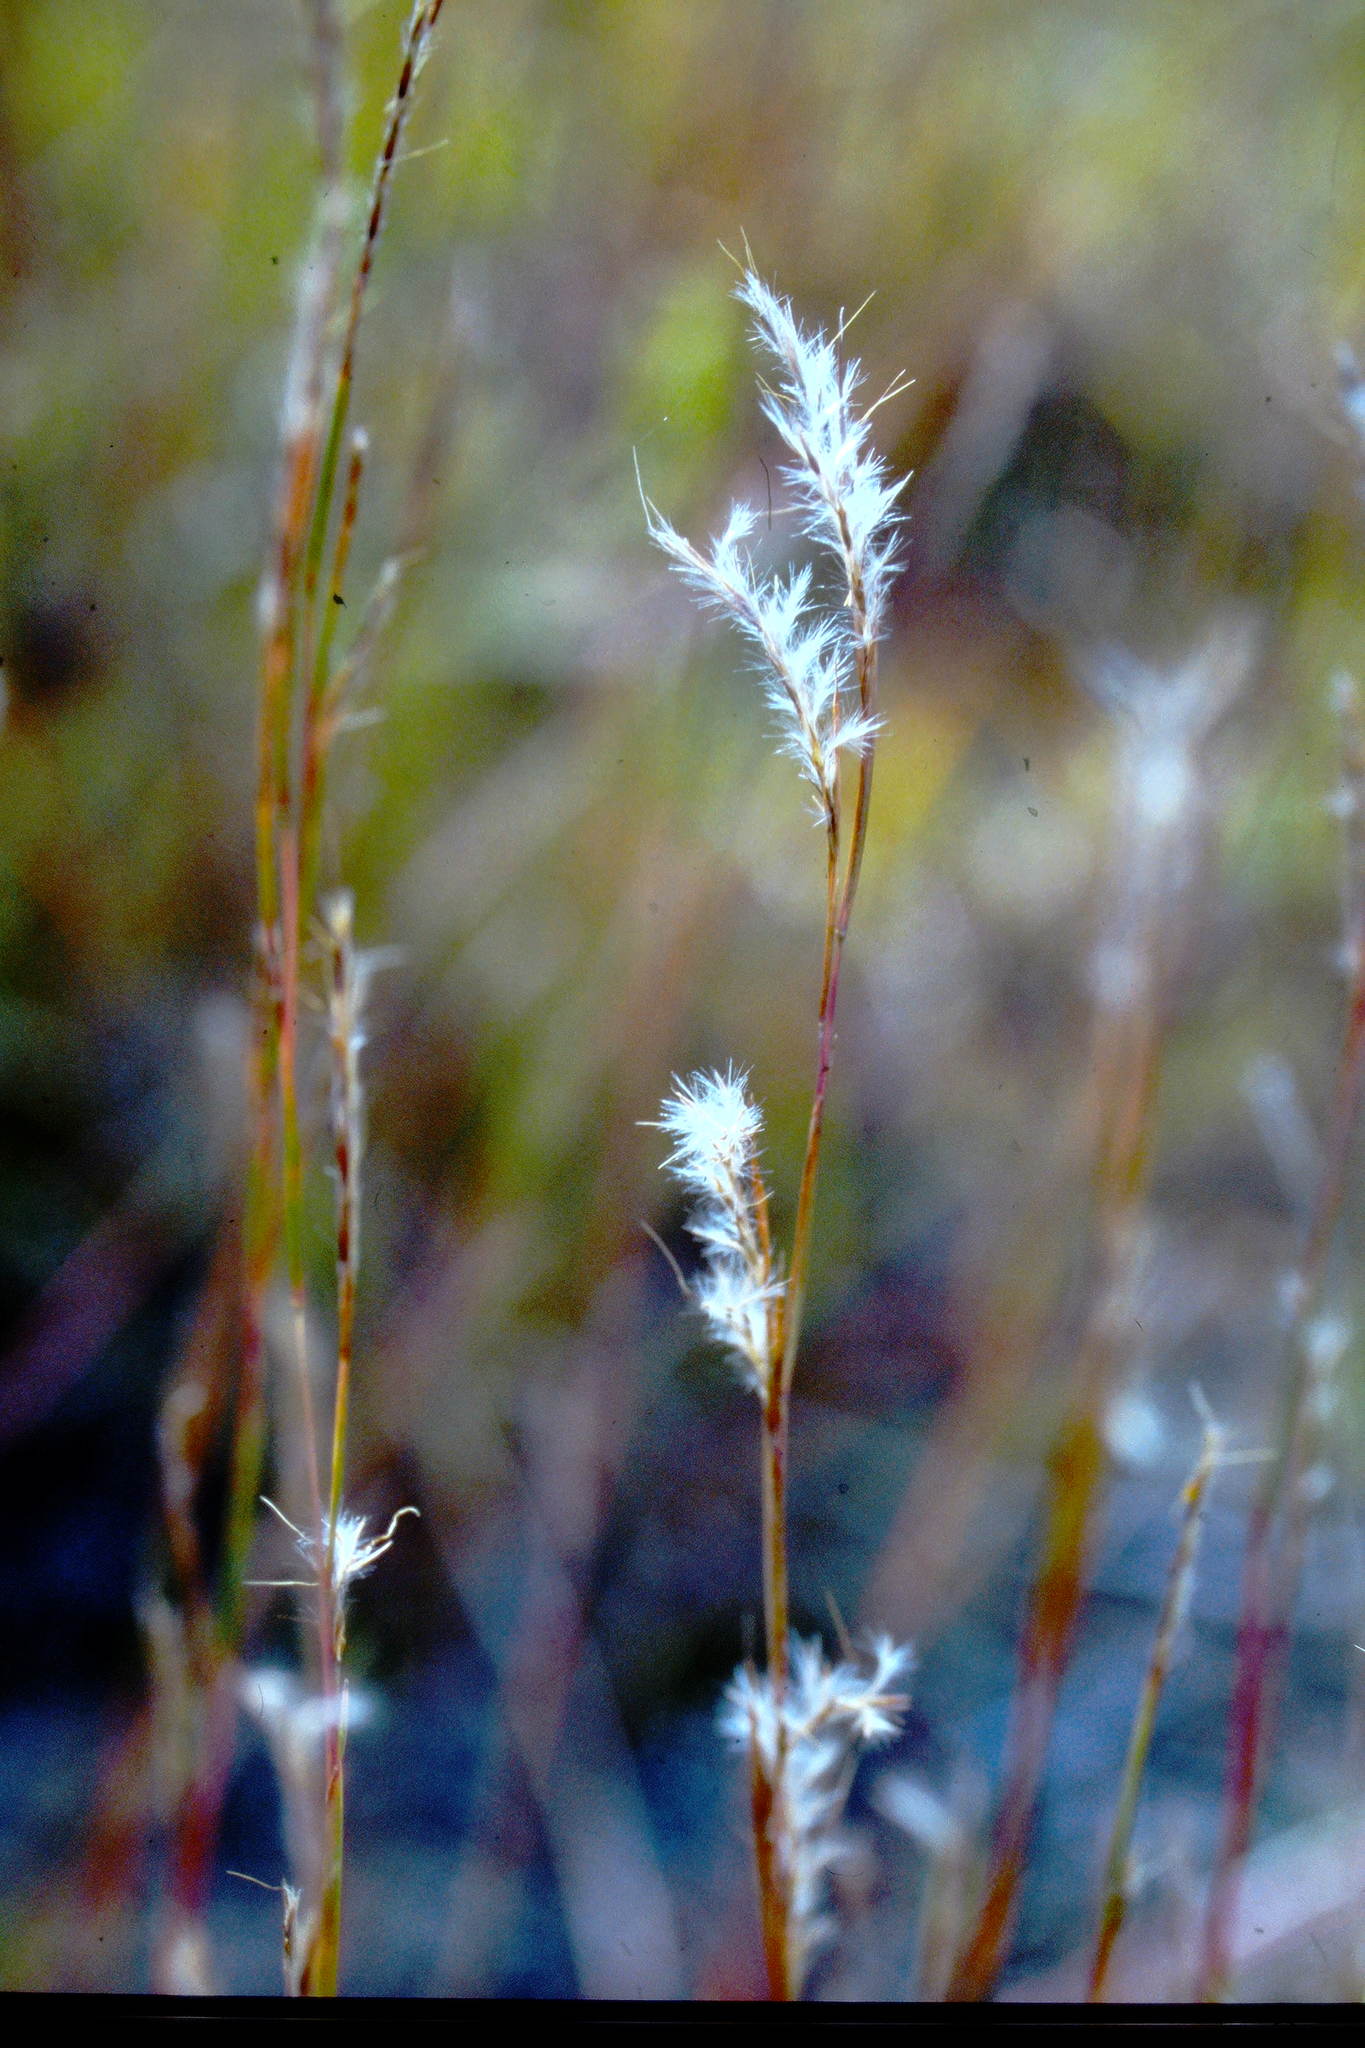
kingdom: Plantae
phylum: Tracheophyta
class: Liliopsida
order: Poales
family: Poaceae
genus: Schizachyrium
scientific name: Schizachyrium scoparium
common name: Little bluestem
